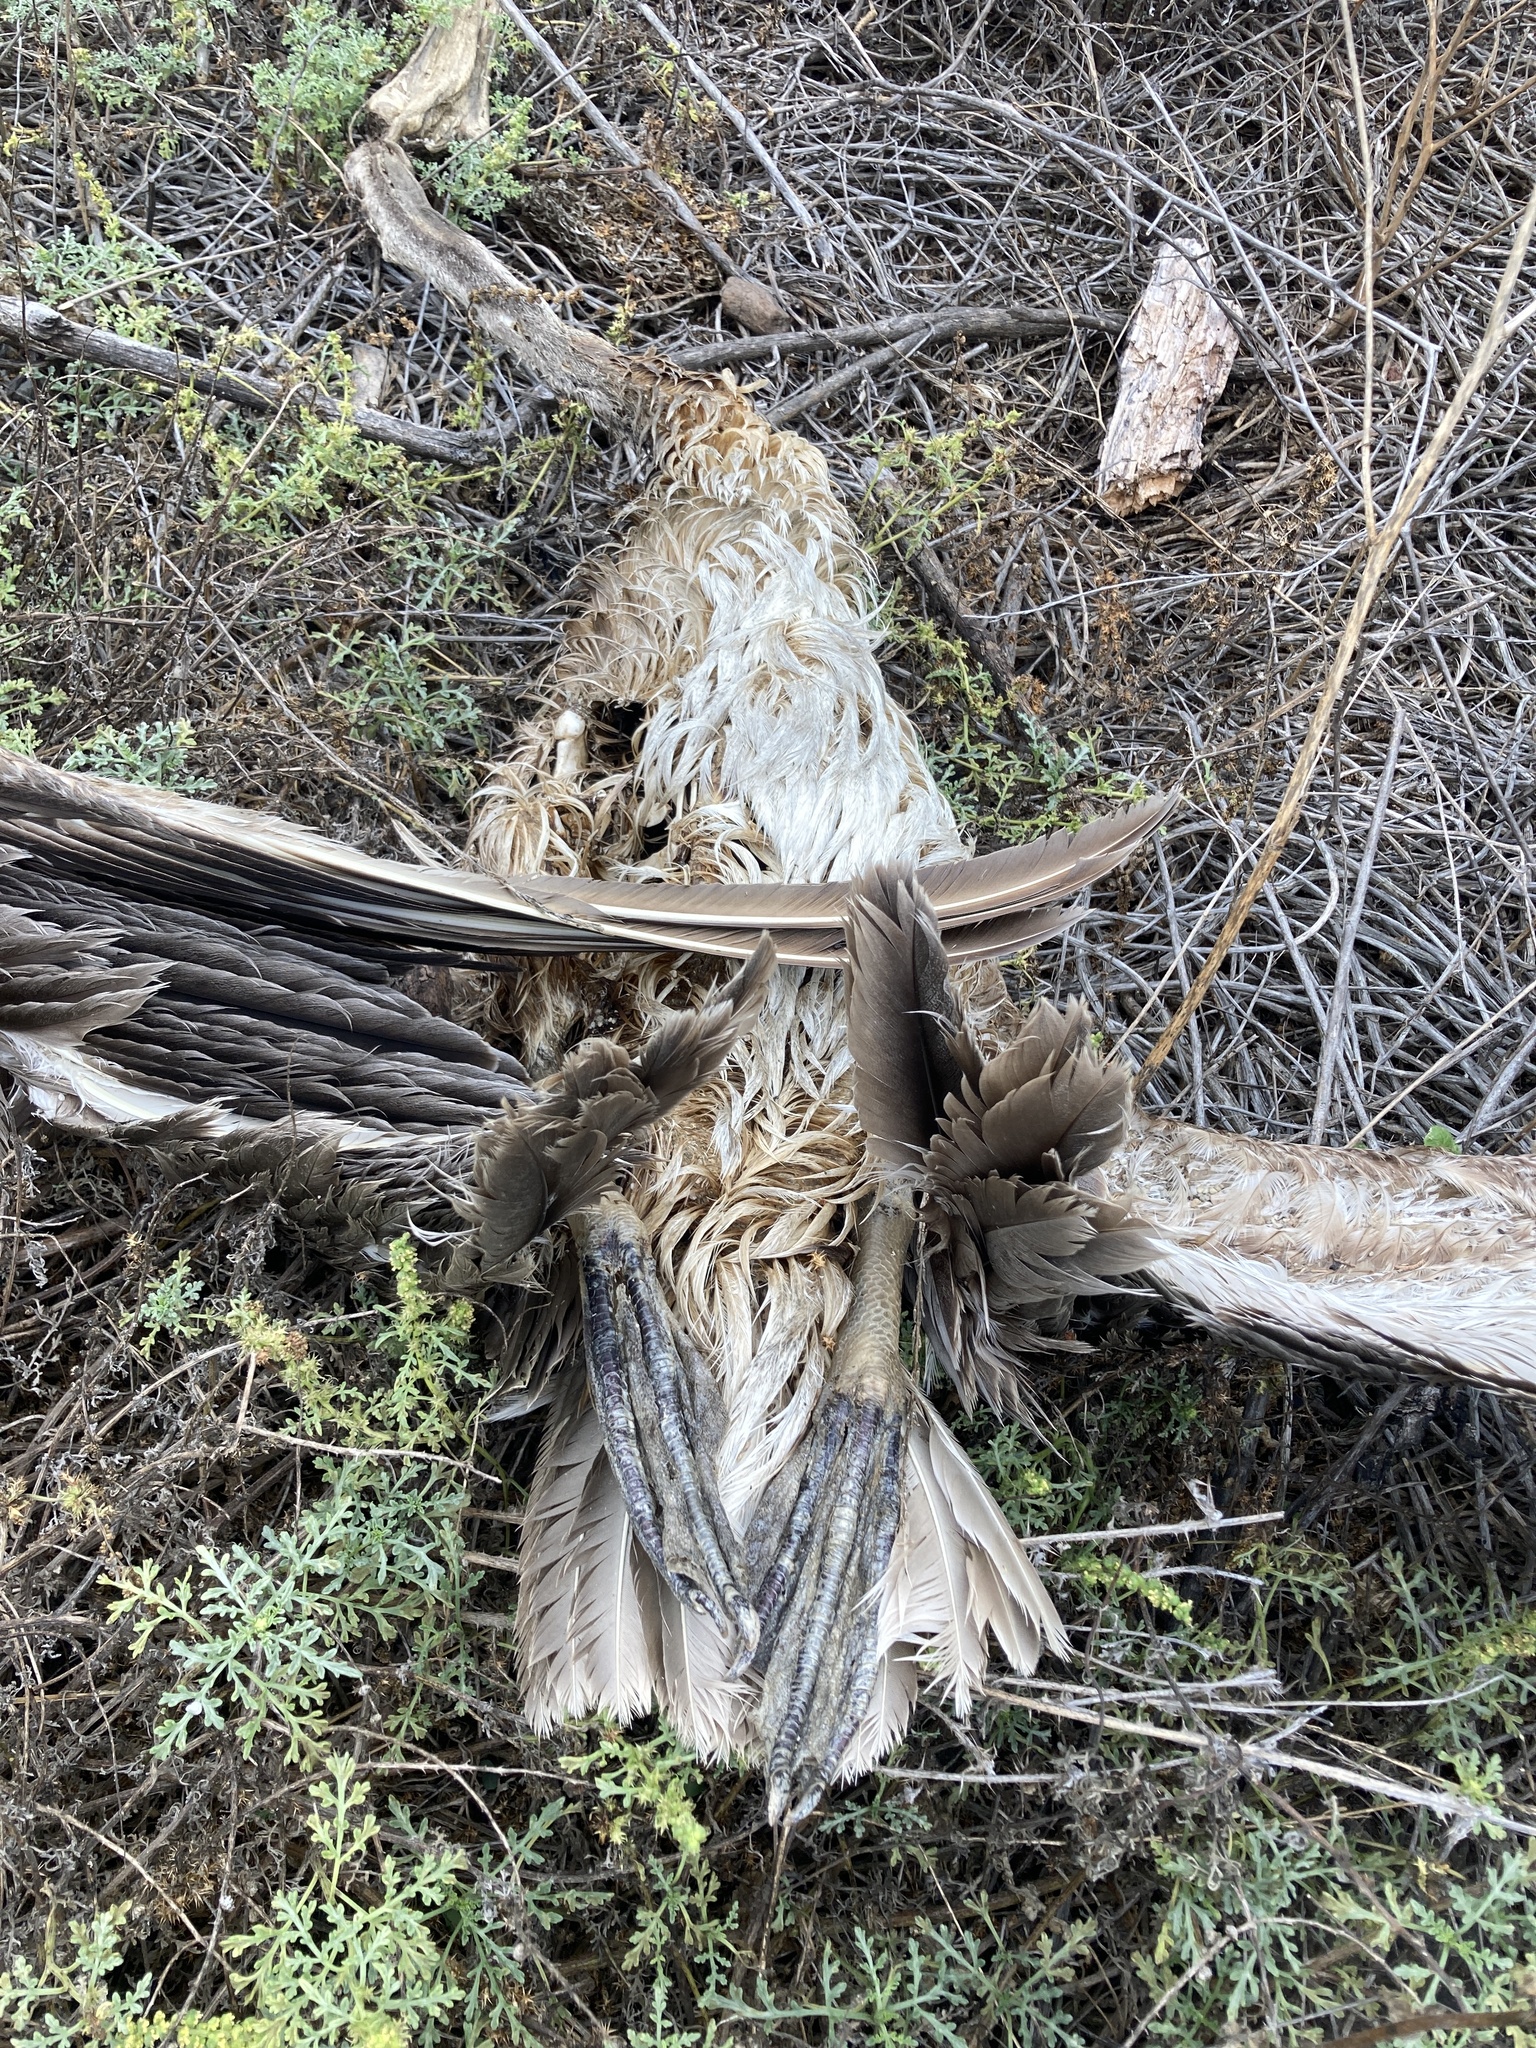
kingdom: Animalia
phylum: Chordata
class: Aves
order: Pelecaniformes
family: Pelecanidae
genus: Pelecanus
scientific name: Pelecanus occidentalis
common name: Brown pelican
